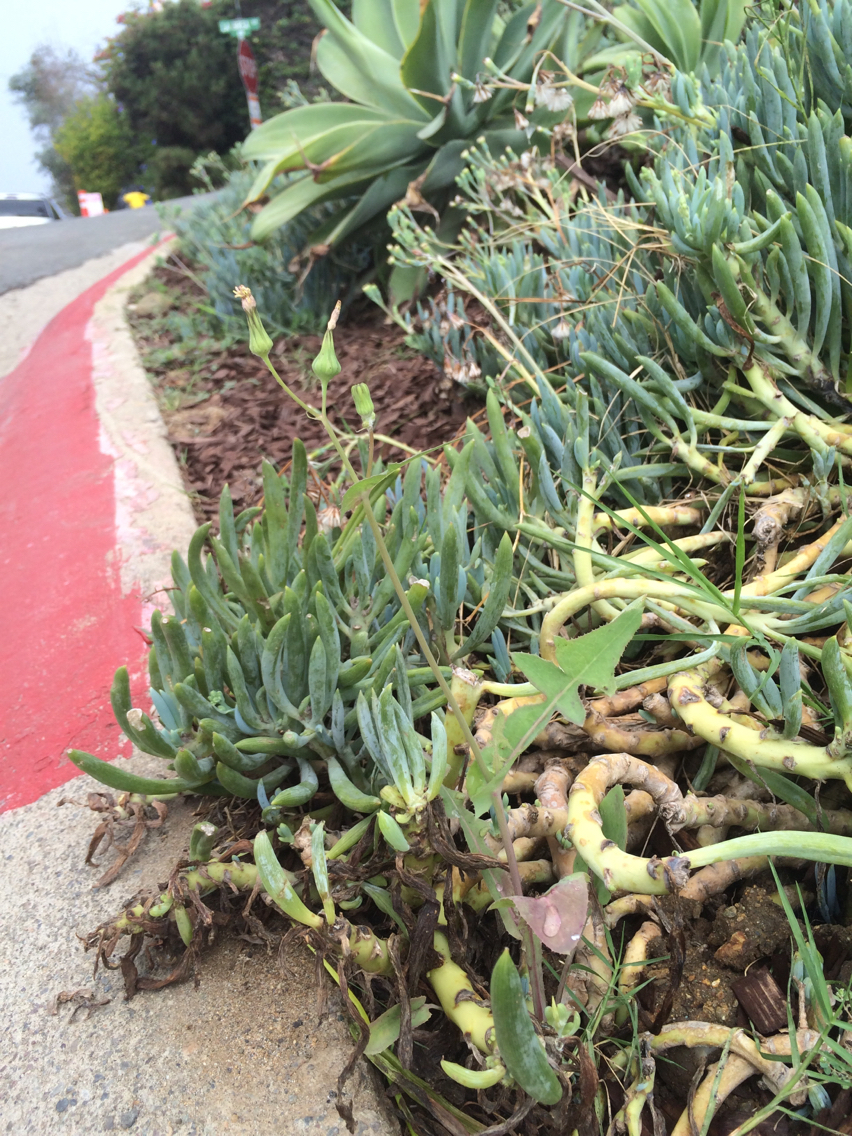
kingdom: Plantae
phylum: Tracheophyta
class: Magnoliopsida
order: Asterales
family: Asteraceae
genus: Sonchus
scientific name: Sonchus oleraceus
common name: Common sowthistle
